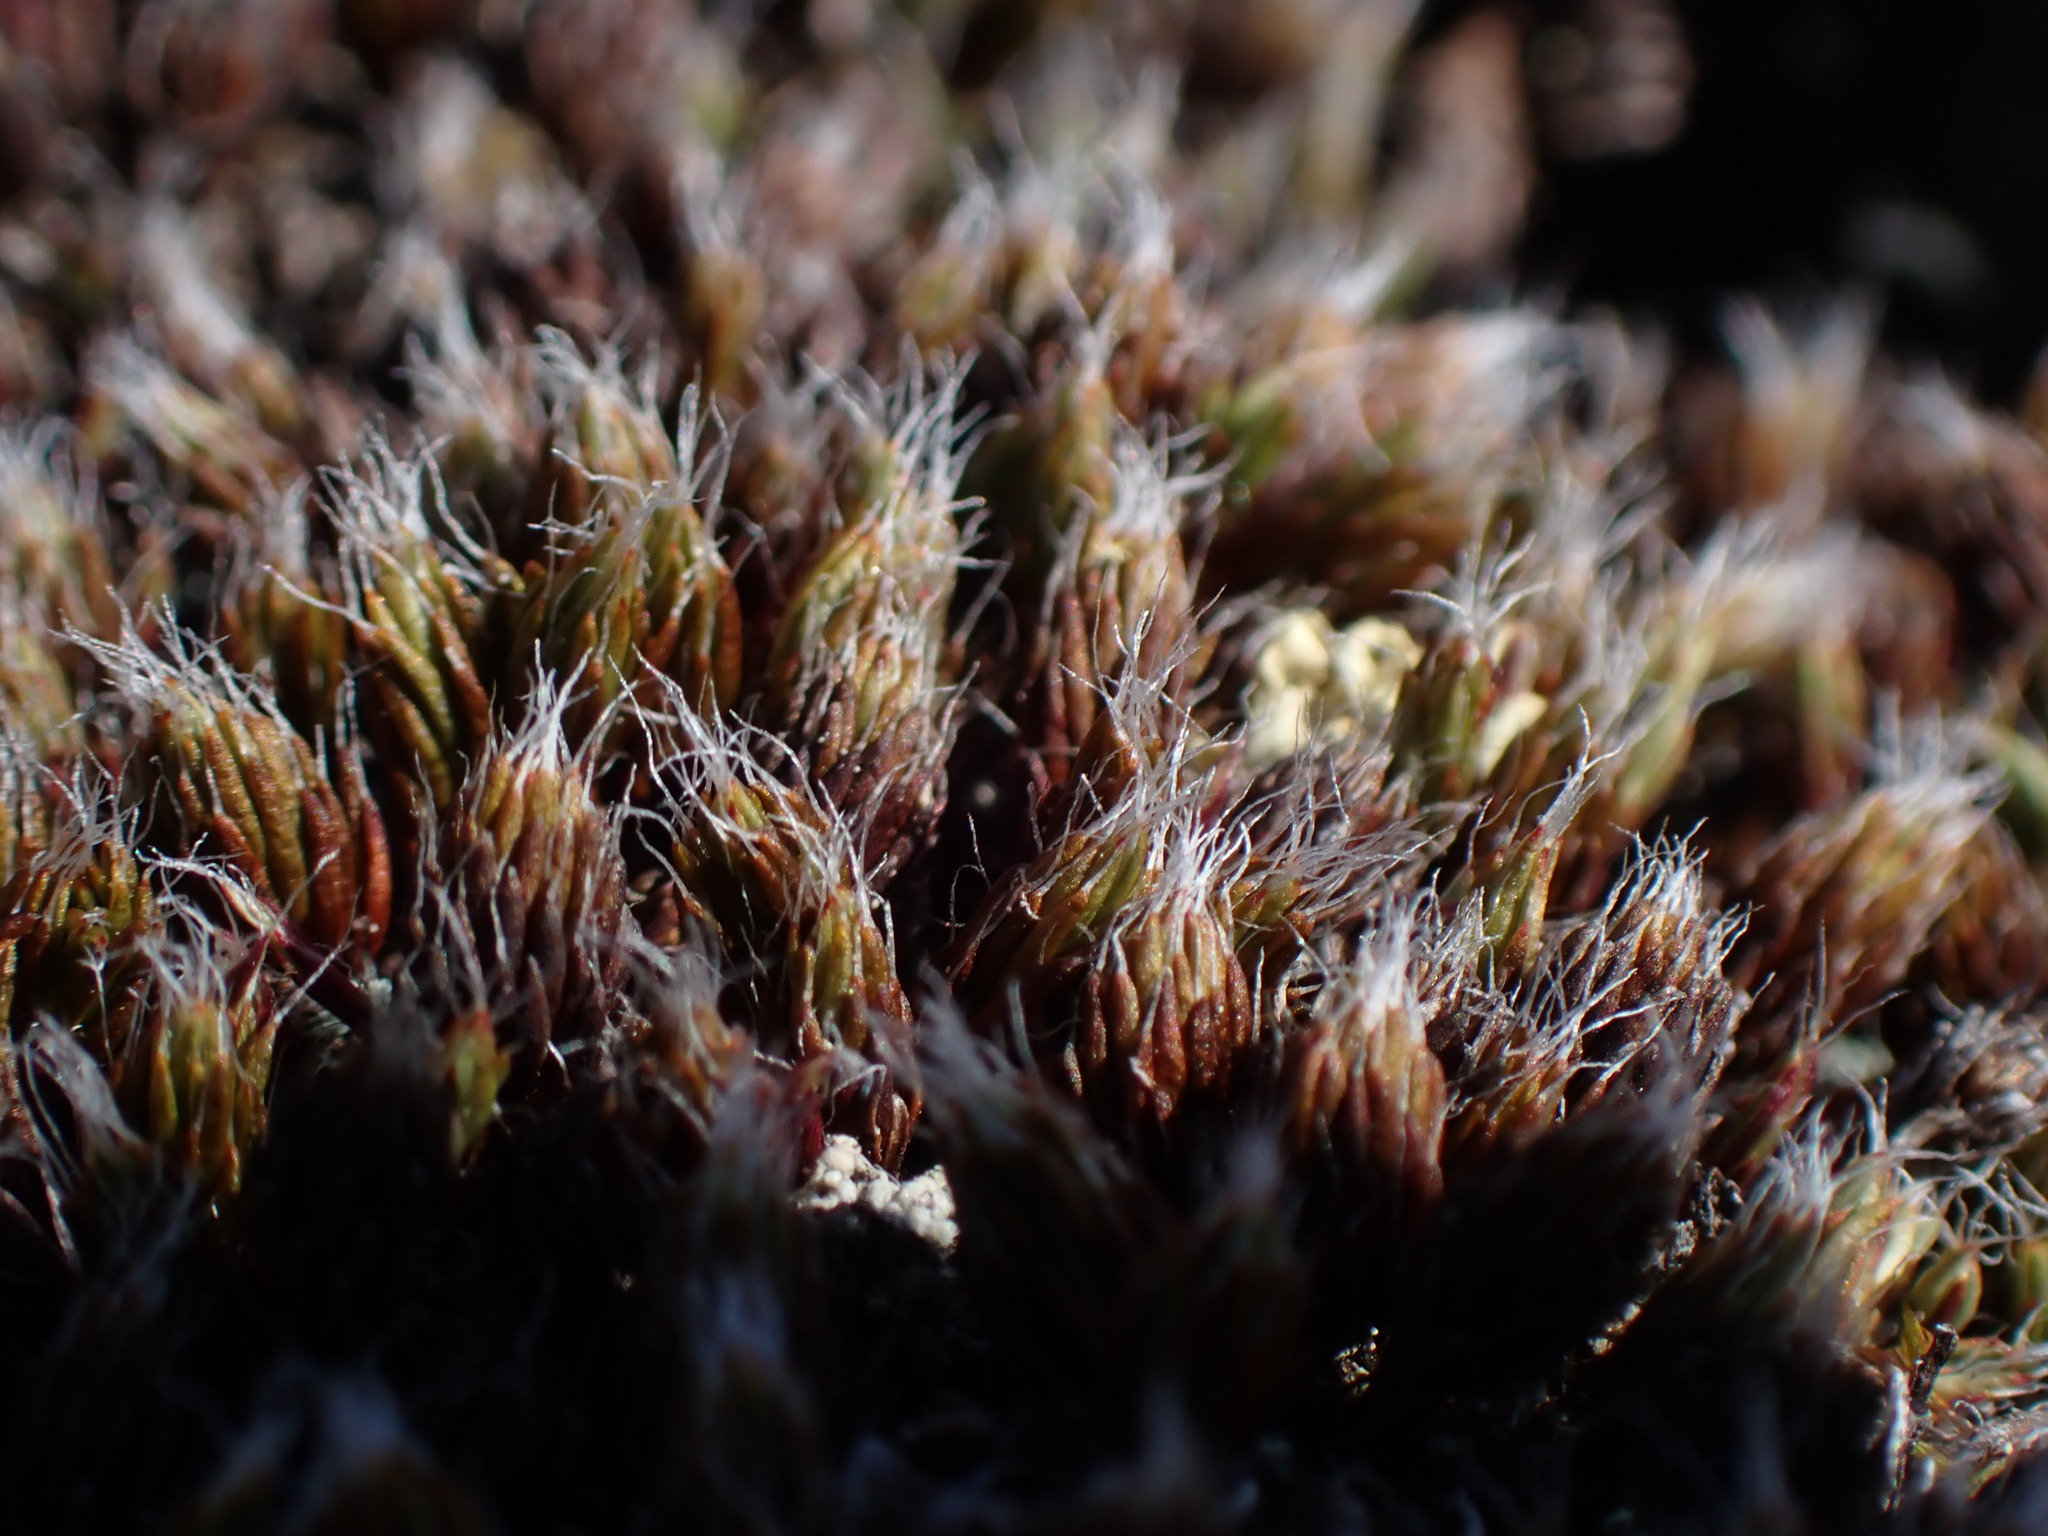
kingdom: Plantae
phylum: Bryophyta
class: Polytrichopsida
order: Polytrichales
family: Polytrichaceae
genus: Polytrichum
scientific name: Polytrichum piliferum
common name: Bristly haircap
